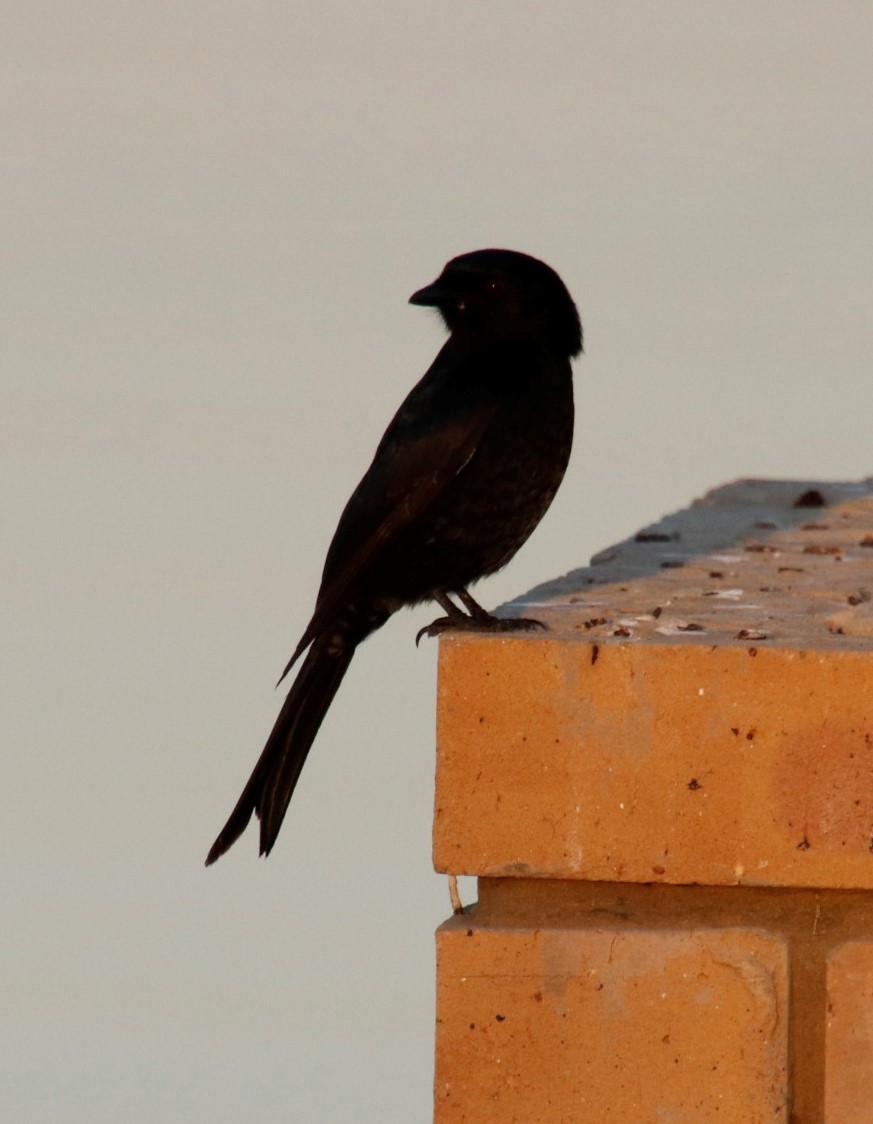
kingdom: Animalia
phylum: Chordata
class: Aves
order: Passeriformes
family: Dicruridae
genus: Dicrurus
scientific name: Dicrurus adsimilis
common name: Fork-tailed drongo
